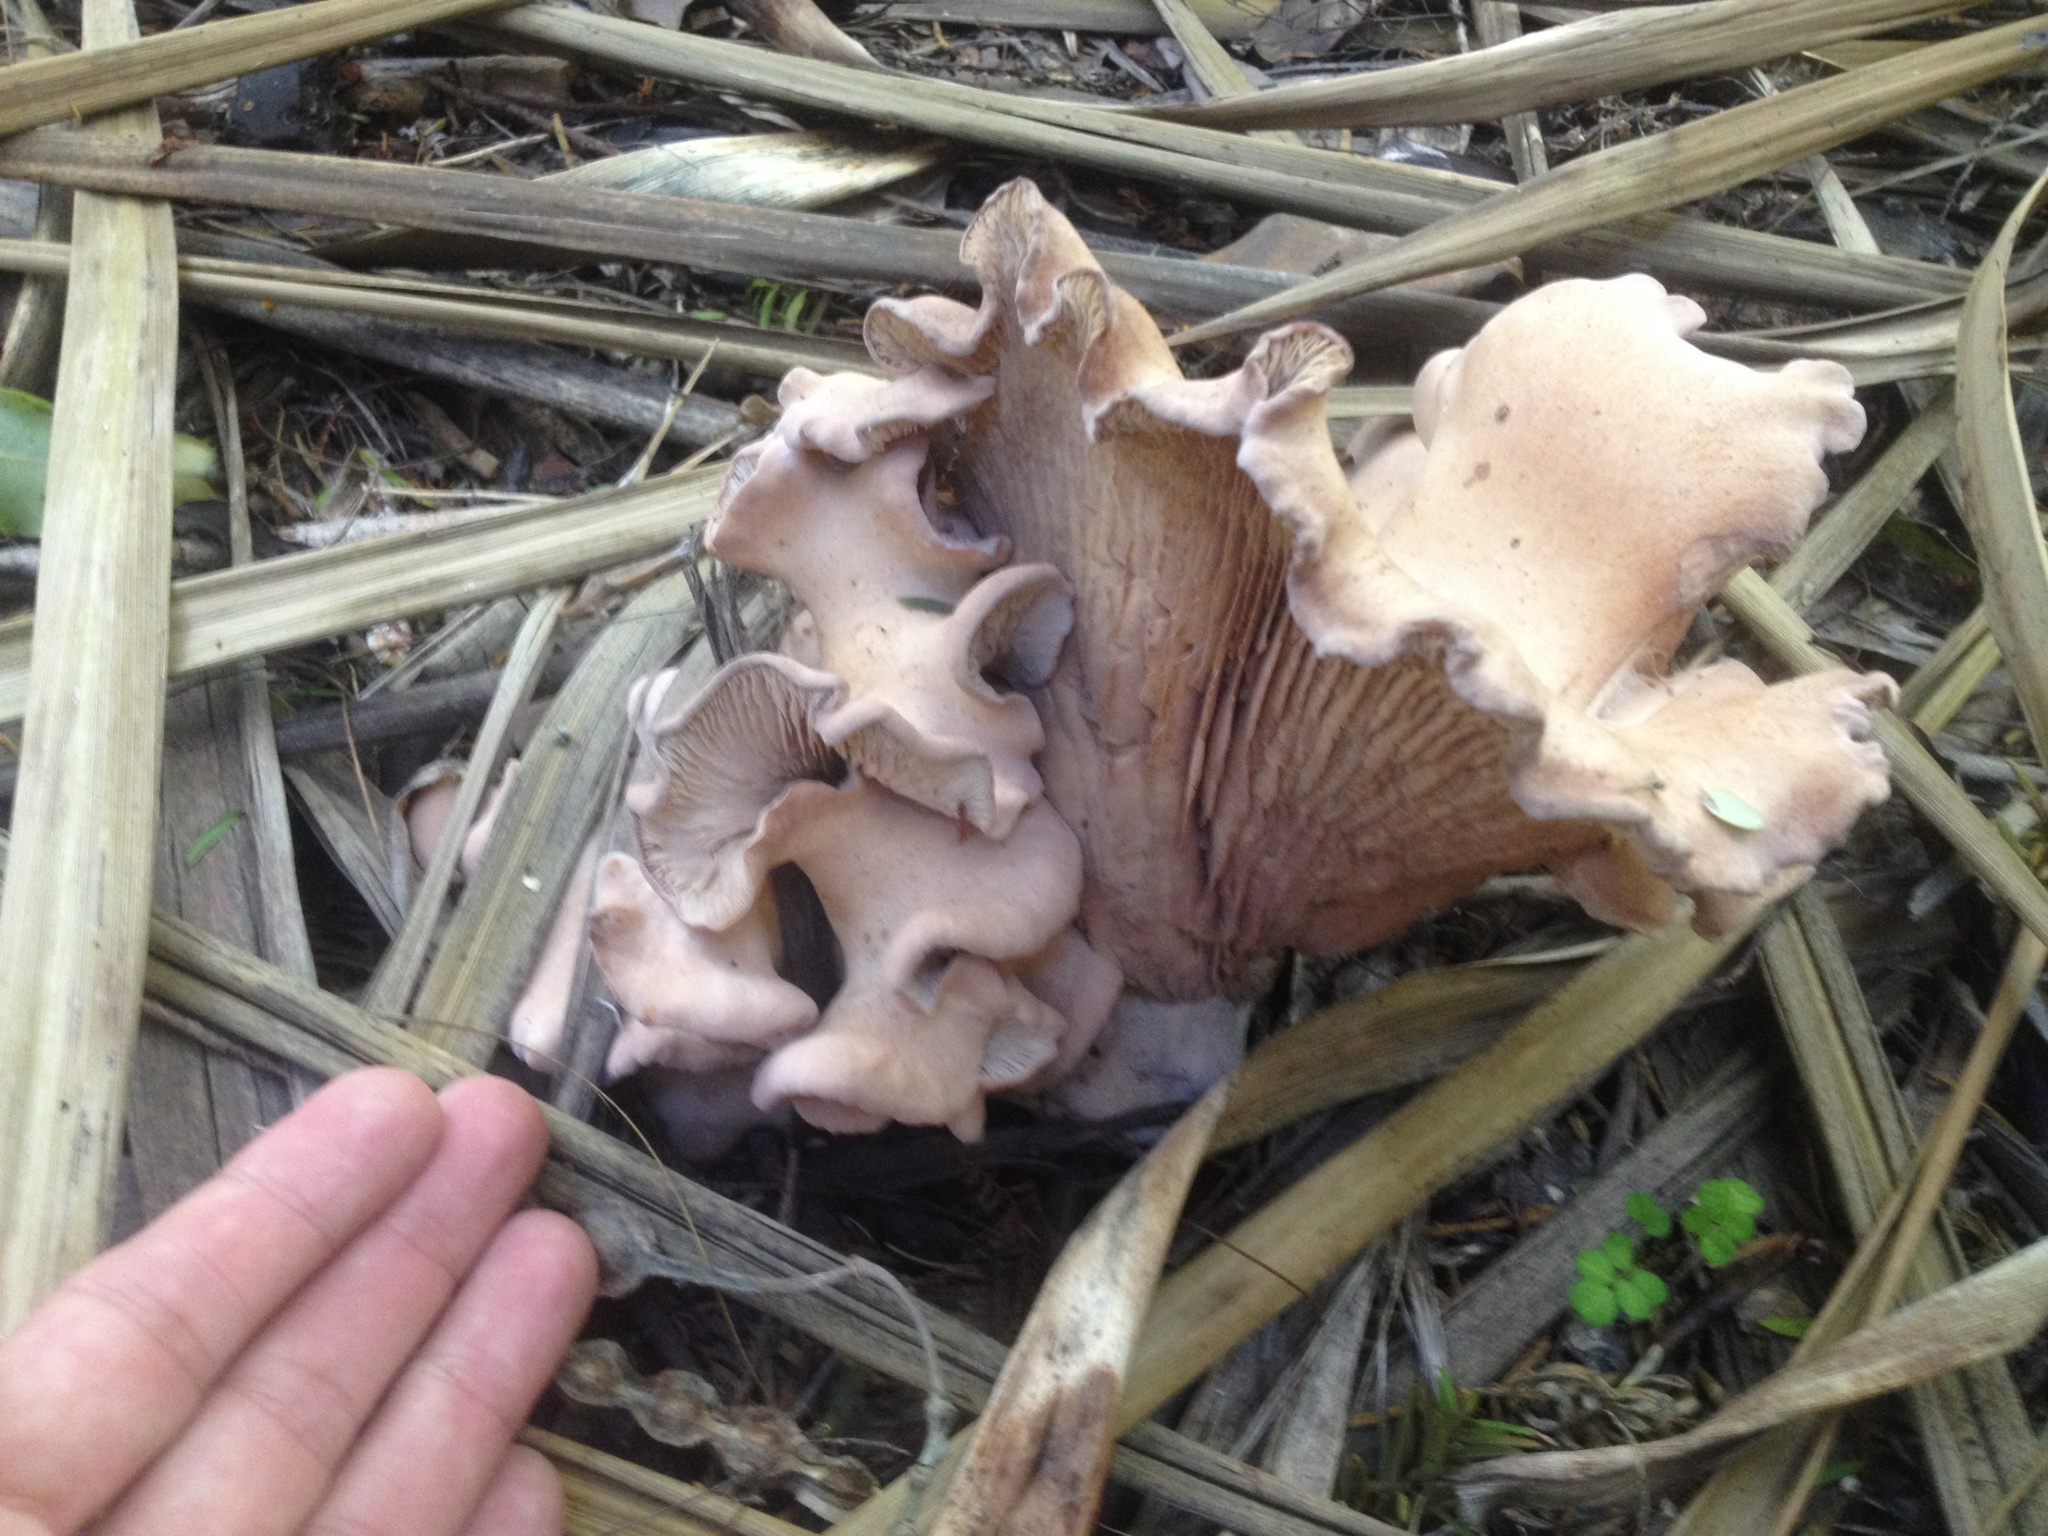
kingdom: Fungi
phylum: Basidiomycota
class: Agaricomycetes
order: Agaricales
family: Entolomataceae
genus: Clitopilus
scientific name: Clitopilus piperitus
